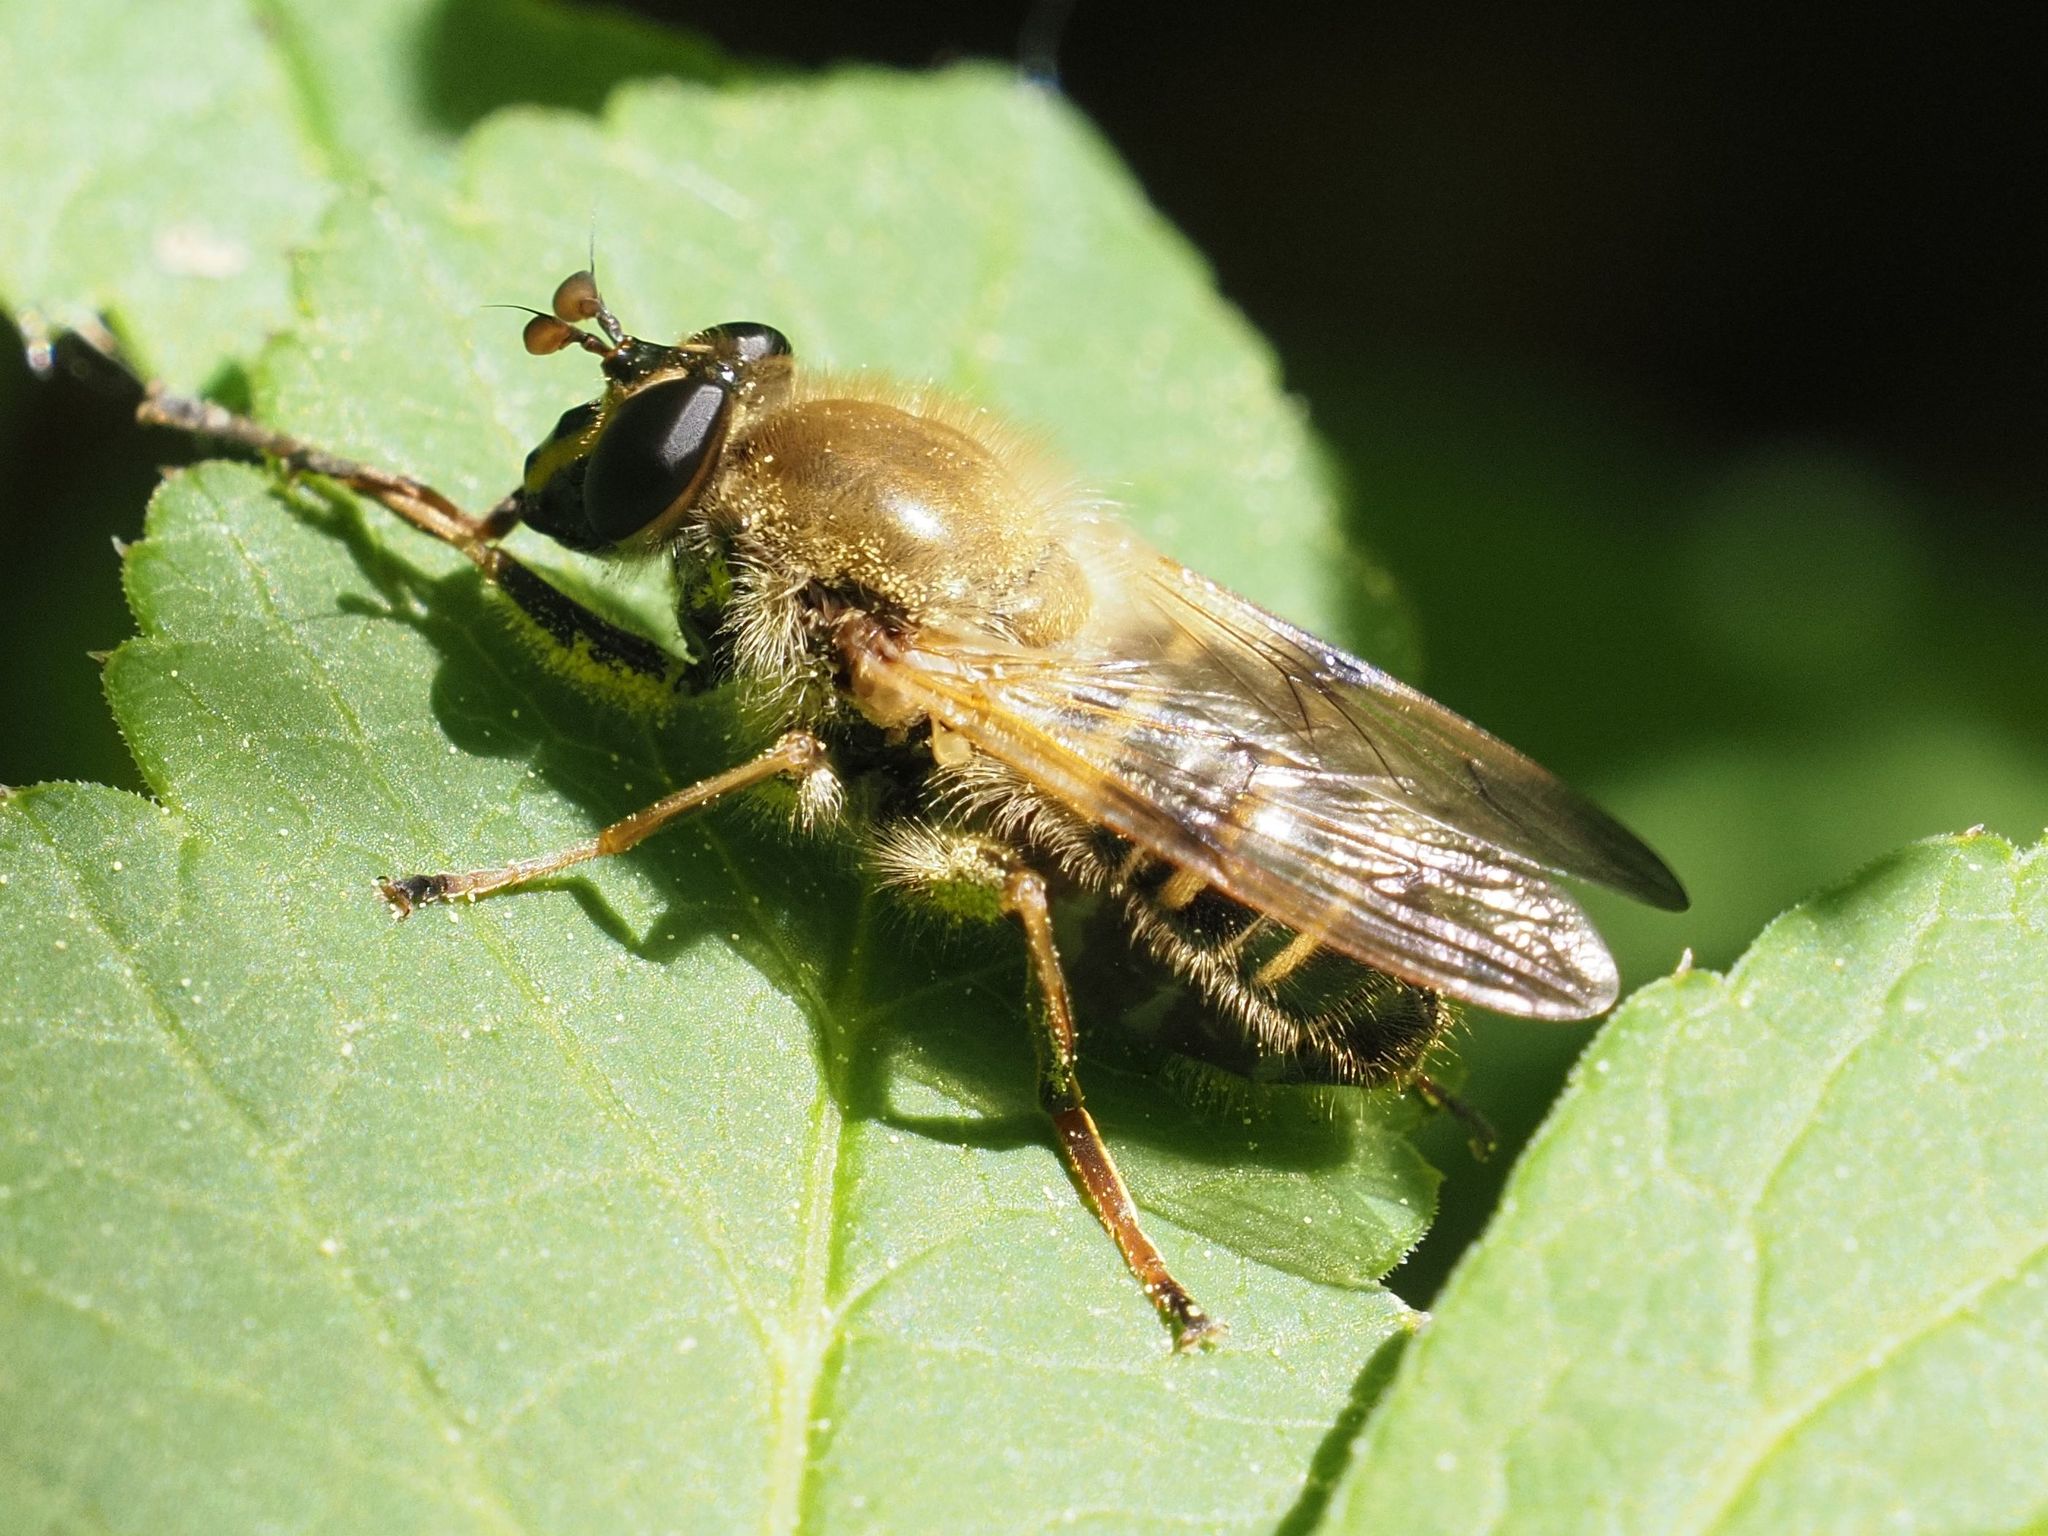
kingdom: Animalia
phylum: Arthropoda
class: Insecta
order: Diptera
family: Syrphidae
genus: Criorhina
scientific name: Criorhina asilica
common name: Pale-banded bear hoverfly
